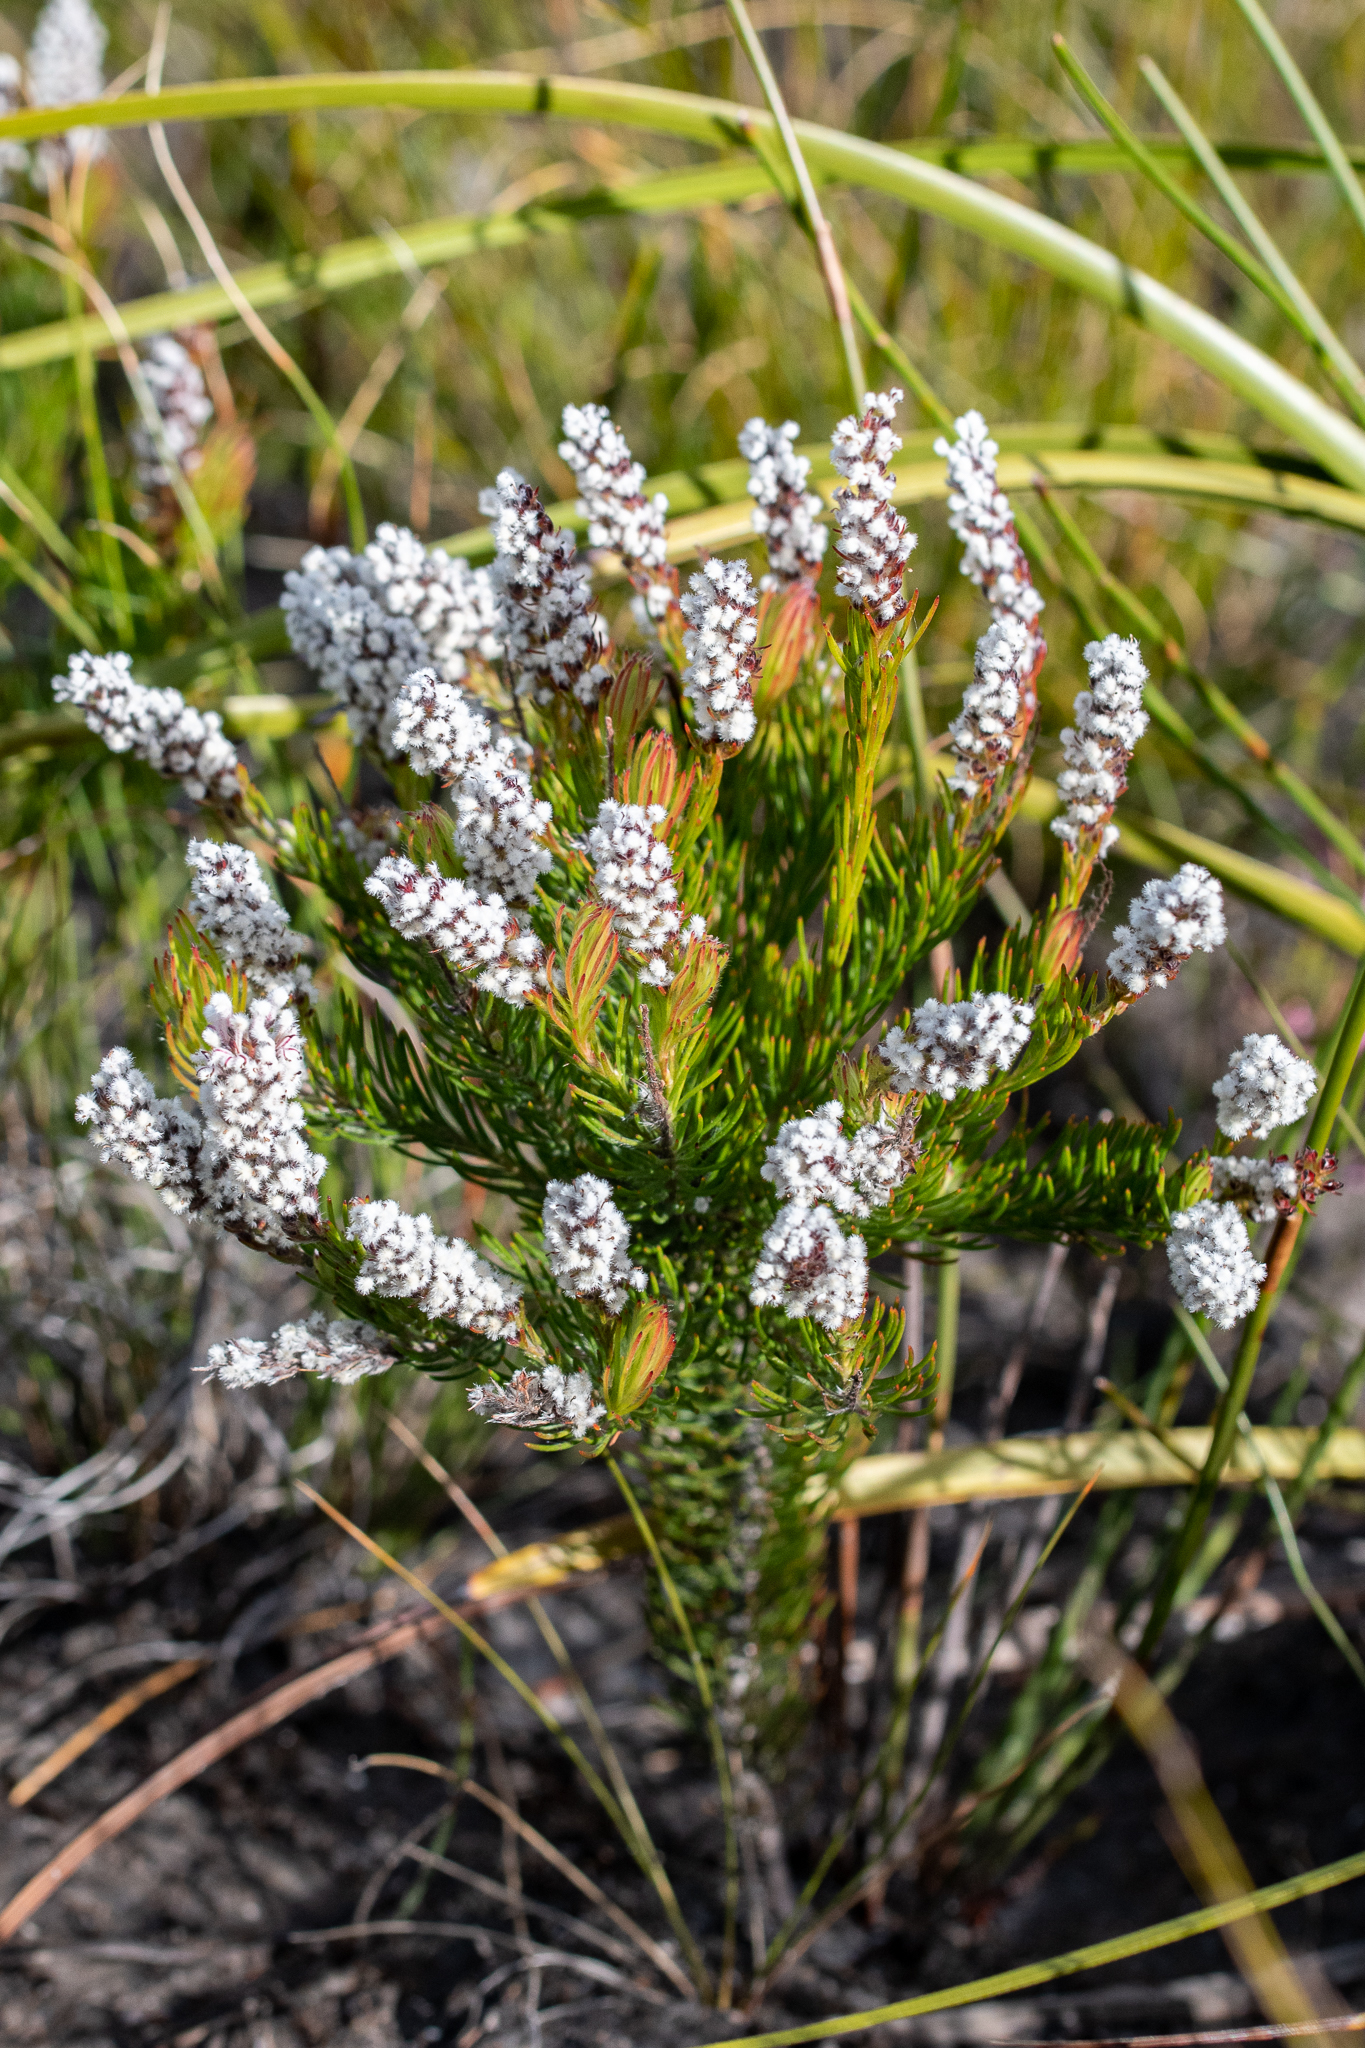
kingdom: Plantae
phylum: Tracheophyta
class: Magnoliopsida
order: Proteales
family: Proteaceae
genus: Spatalla
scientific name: Spatalla mollis
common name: Woolly spoon
